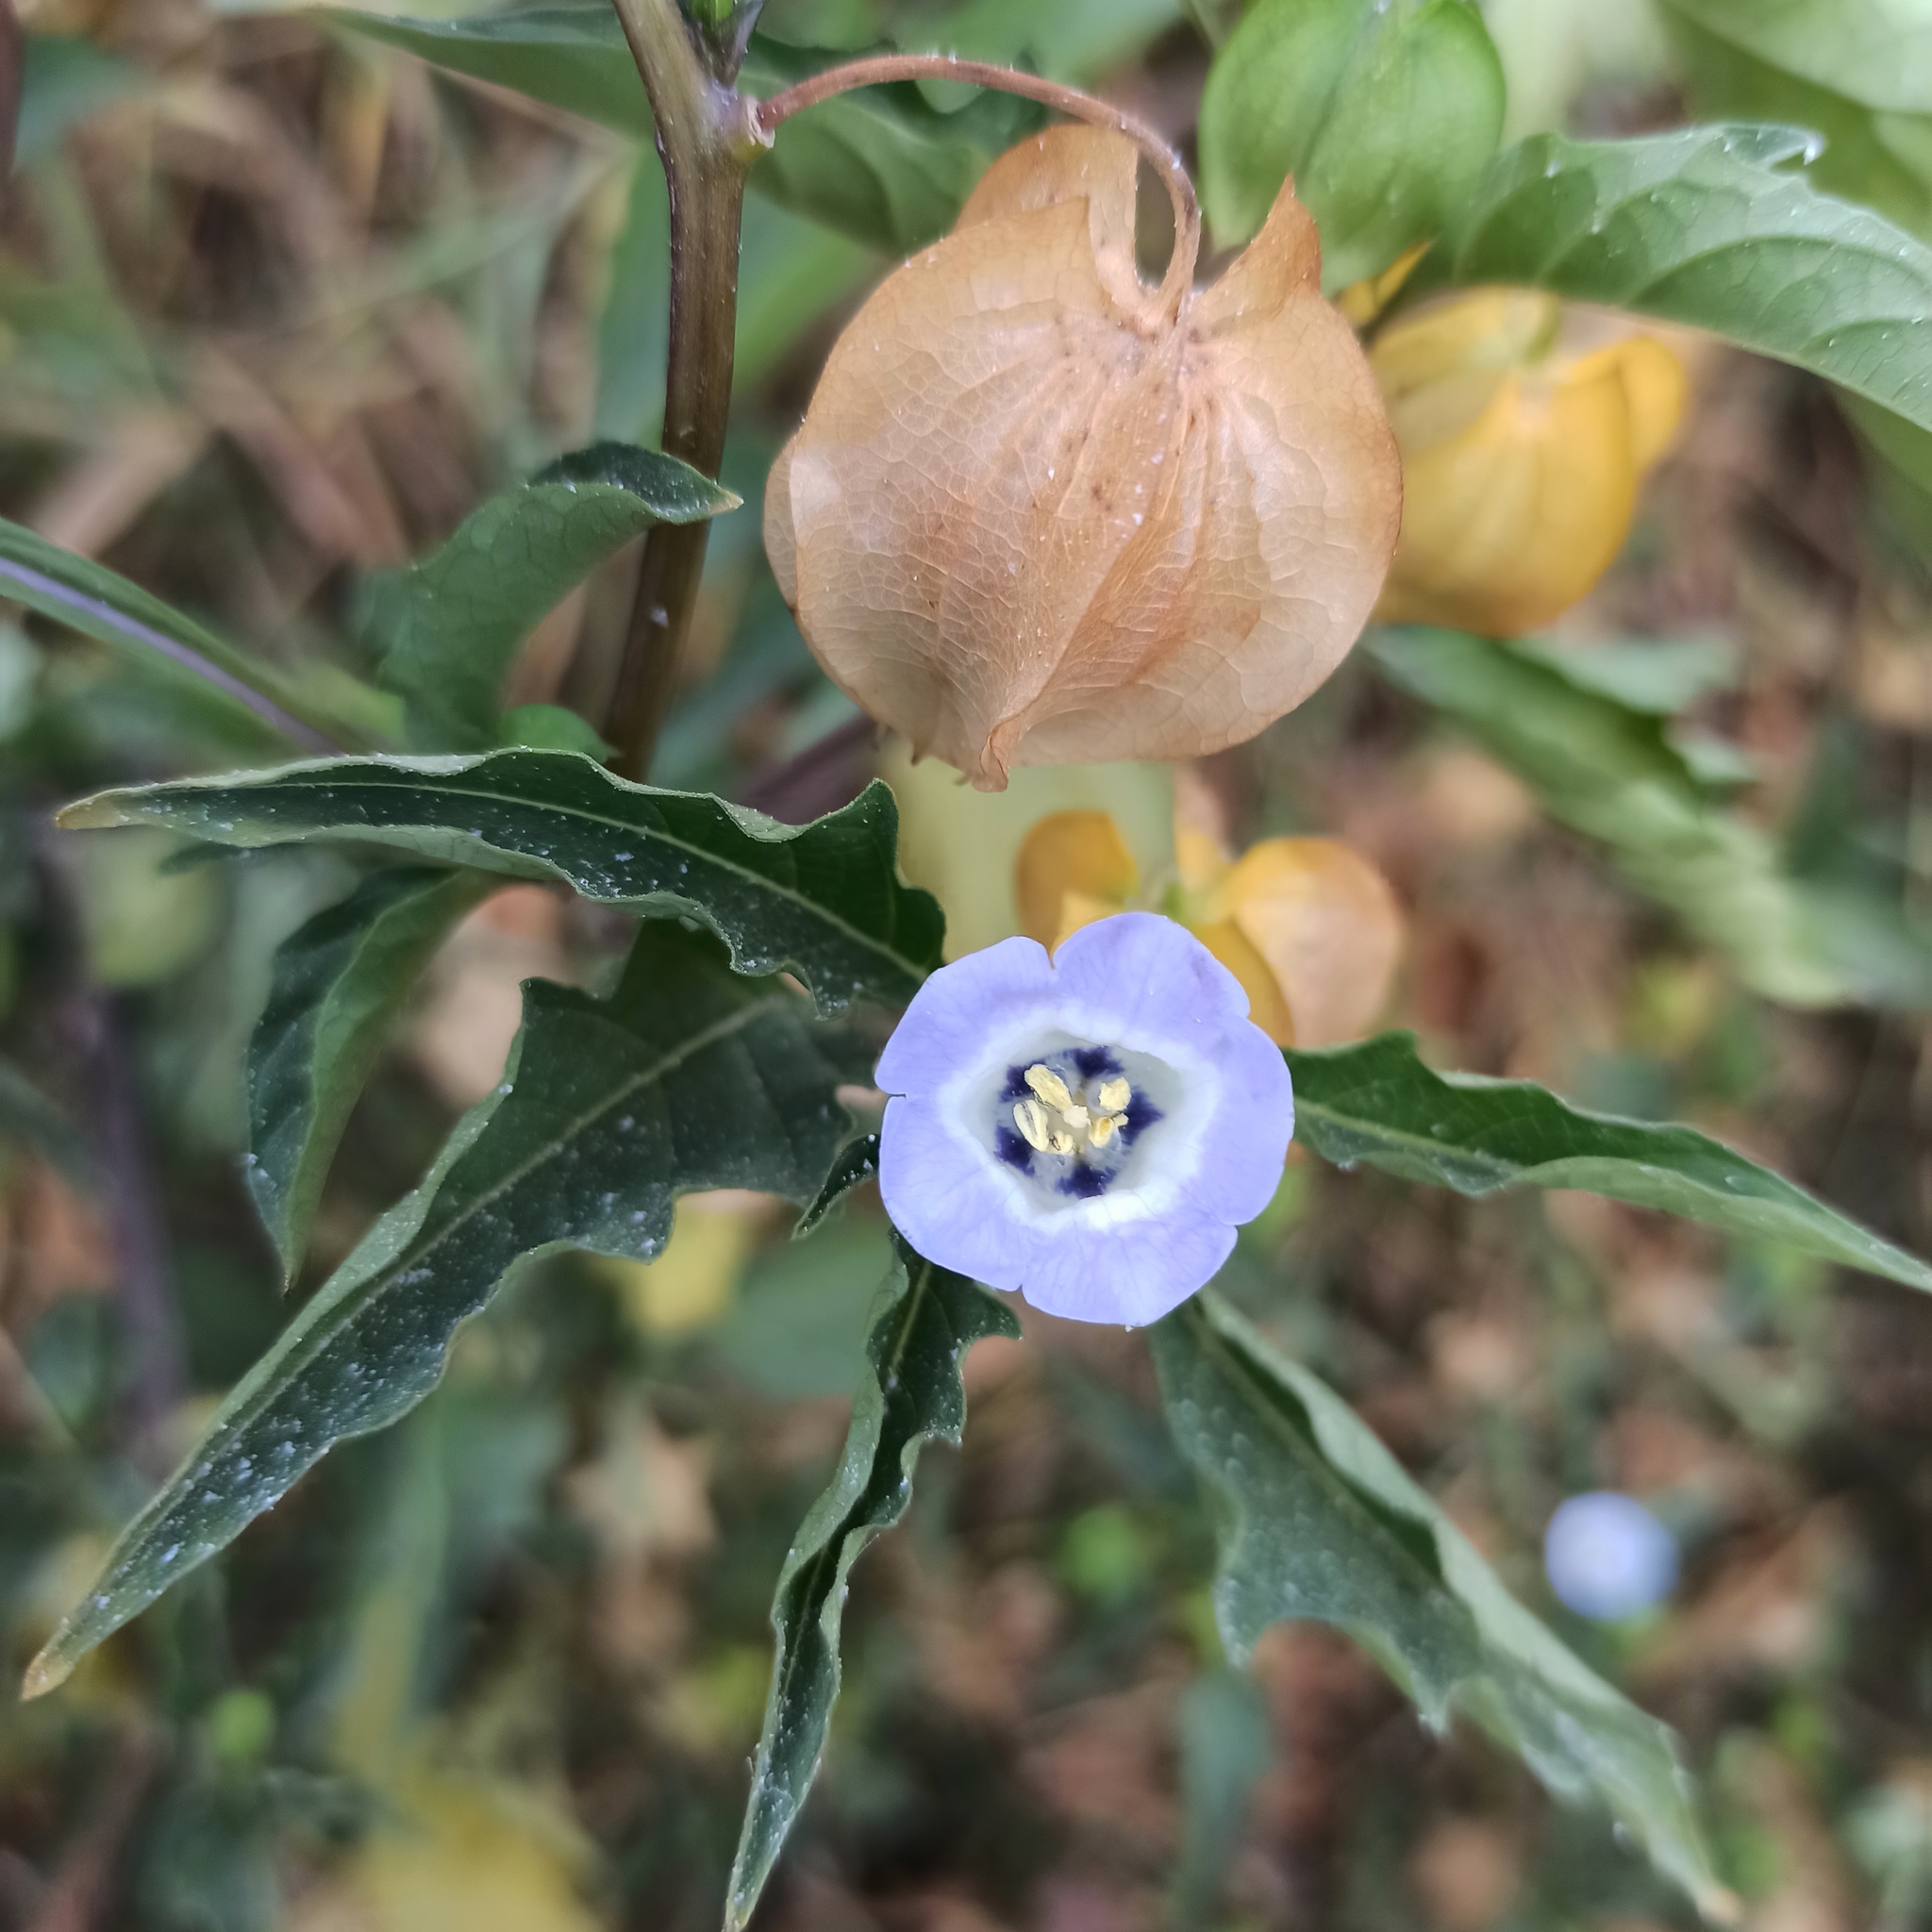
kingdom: Plantae
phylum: Tracheophyta
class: Magnoliopsida
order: Solanales
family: Solanaceae
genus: Nicandra
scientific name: Nicandra physalodes
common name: Apple-of-peru
